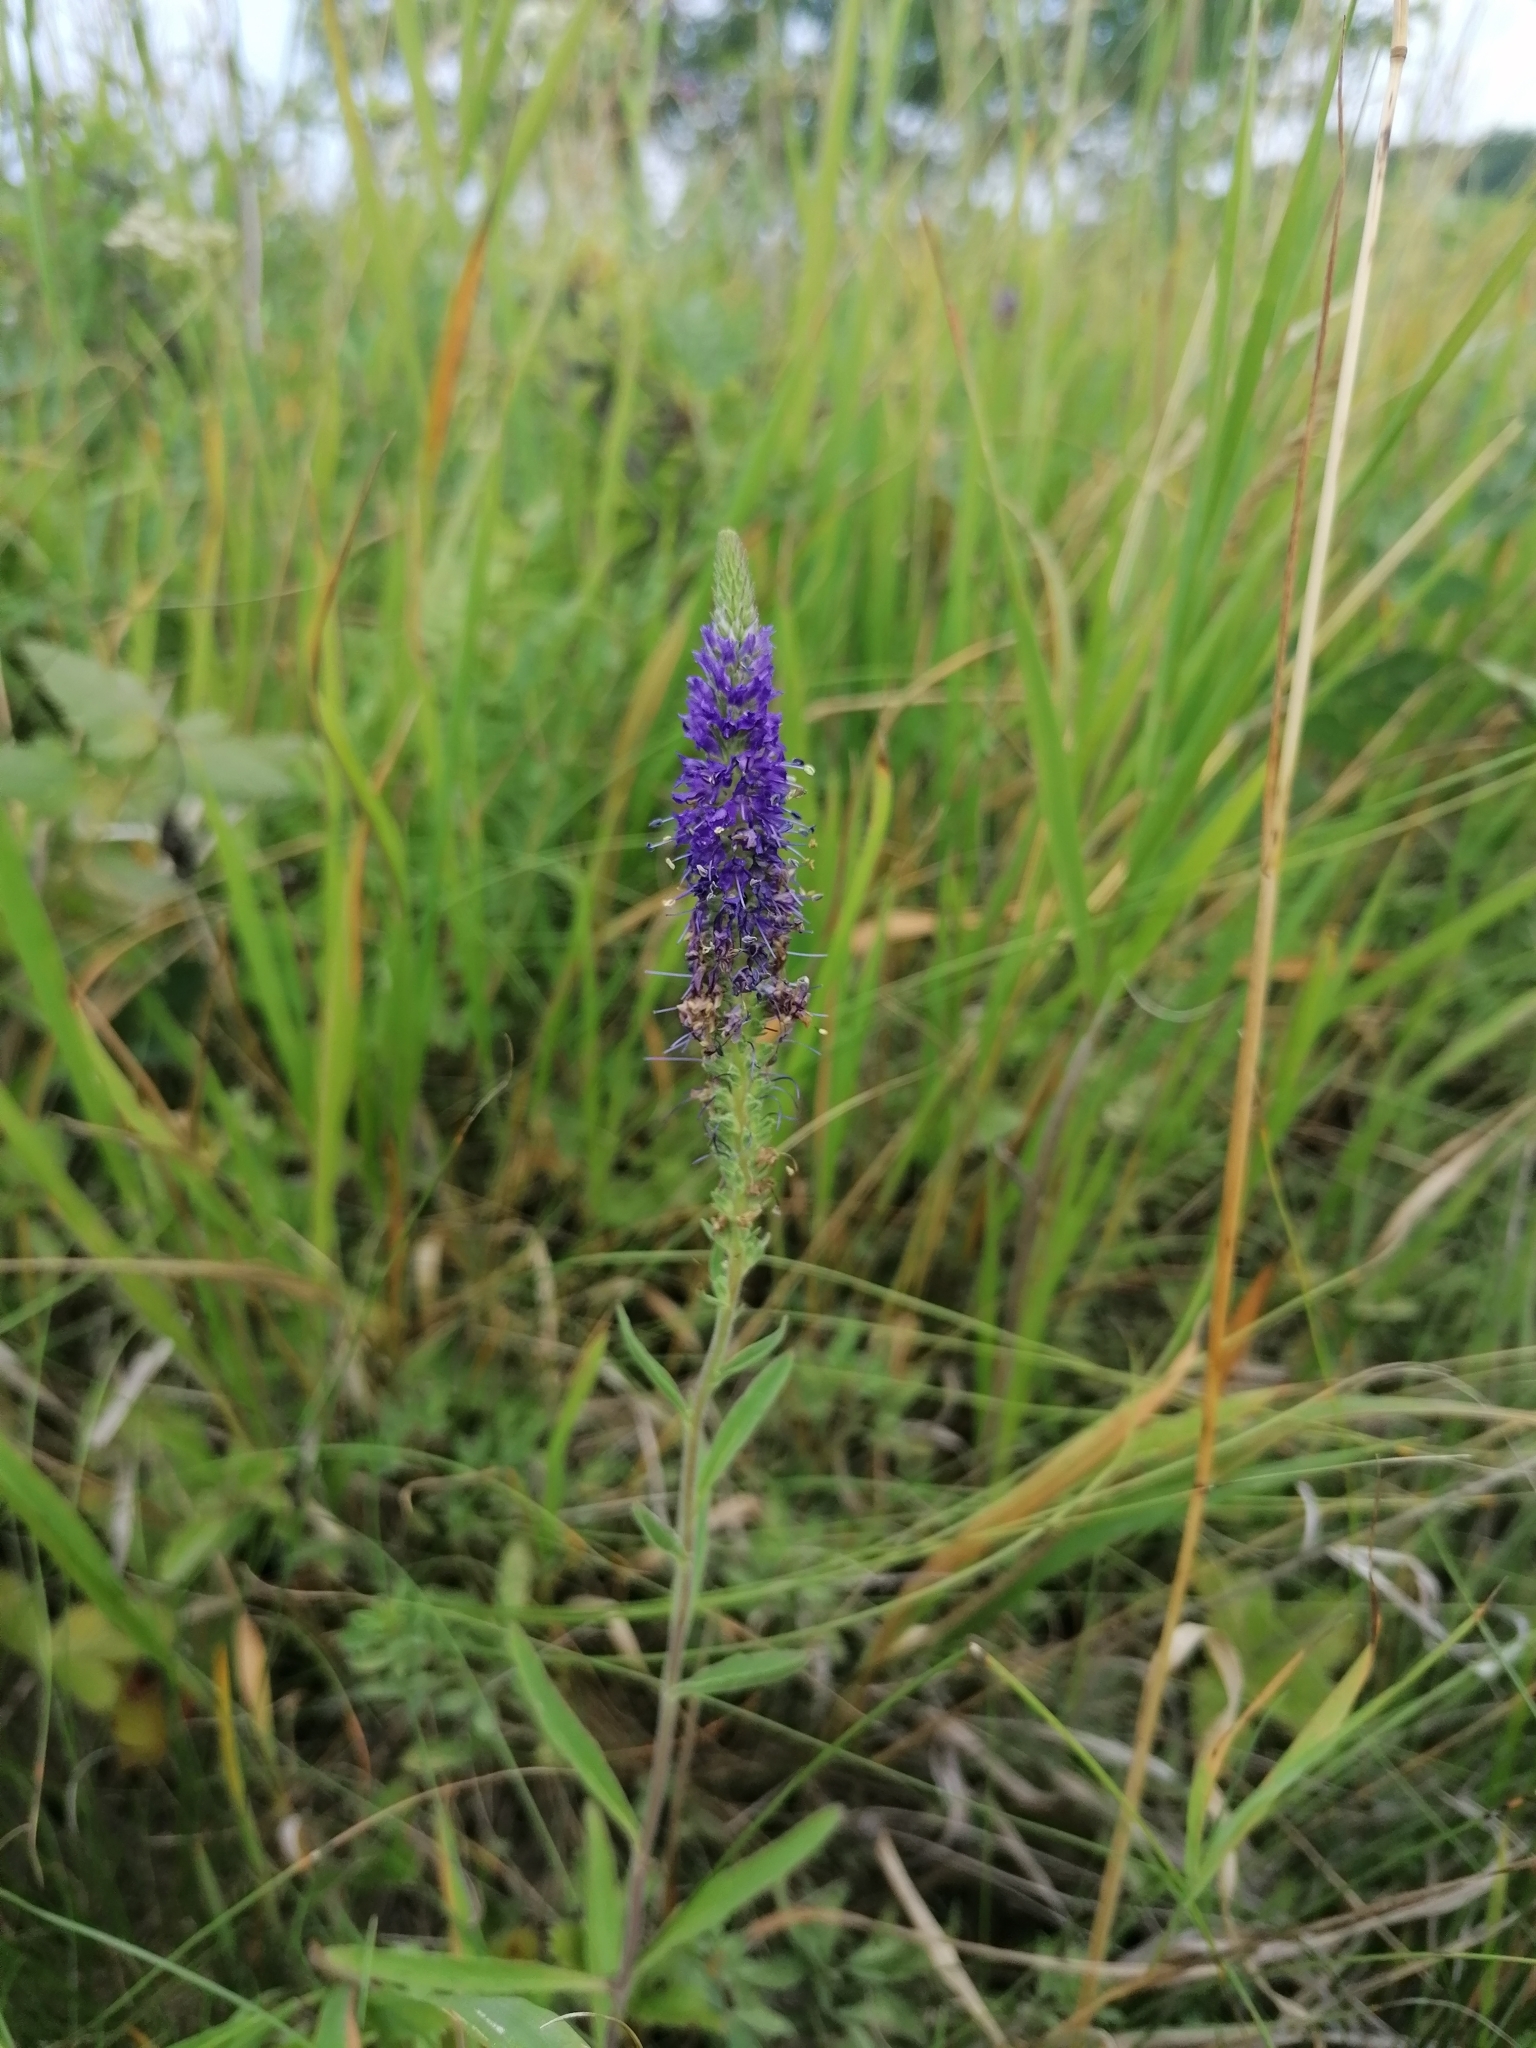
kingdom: Plantae
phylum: Tracheophyta
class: Magnoliopsida
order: Lamiales
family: Plantaginaceae
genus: Veronica
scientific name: Veronica spicata
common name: Spiked speedwell
